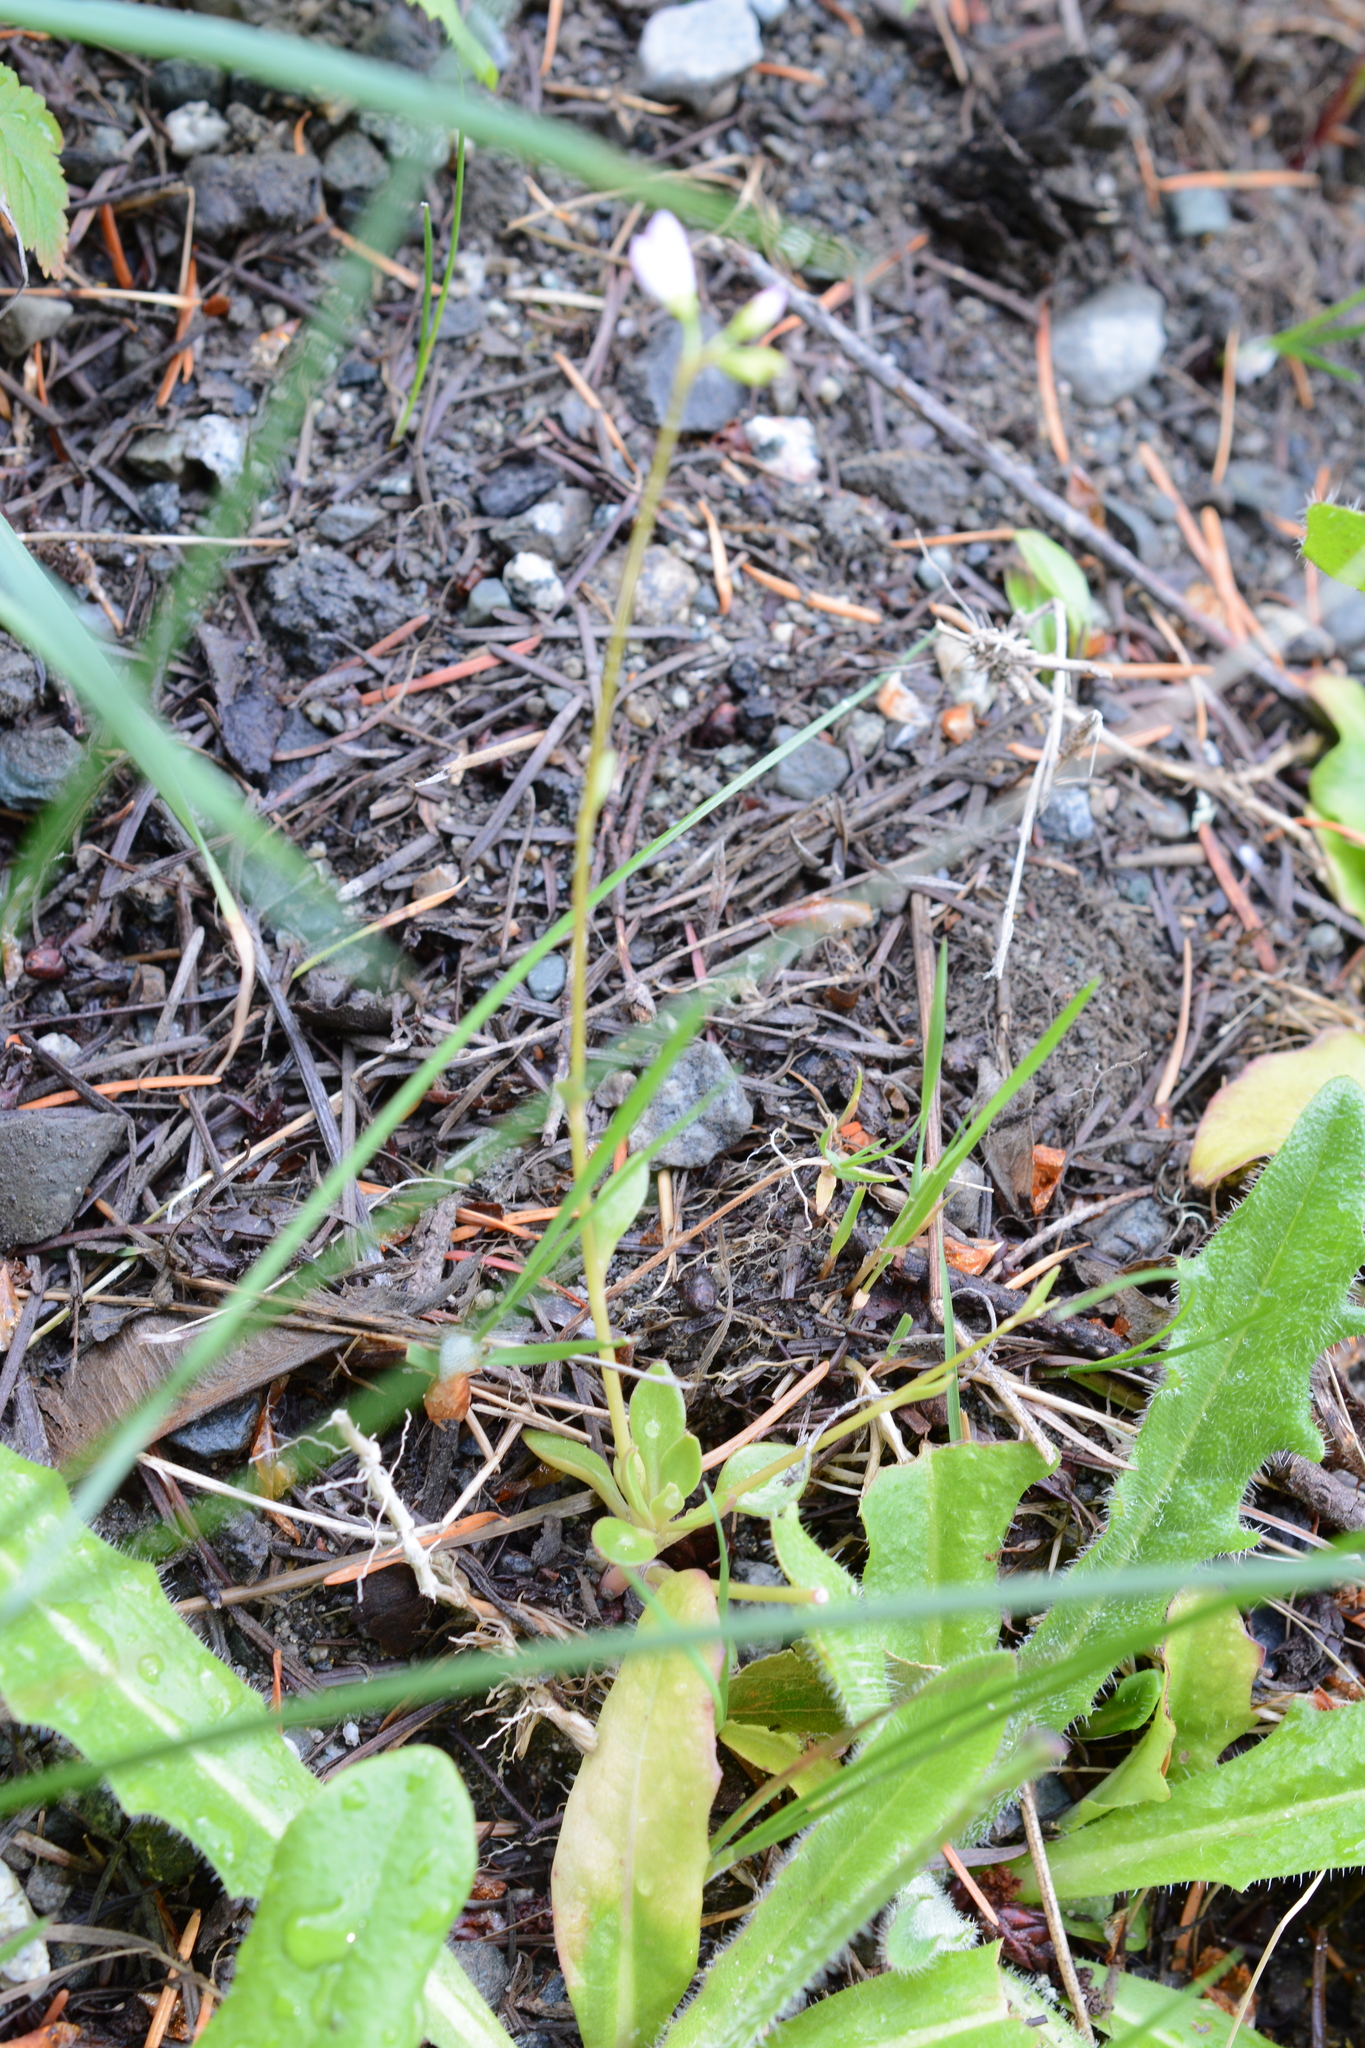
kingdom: Plantae
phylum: Tracheophyta
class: Magnoliopsida
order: Caryophyllales
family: Montiaceae
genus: Montia
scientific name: Montia parvifolia
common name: Small-leaved blinks
